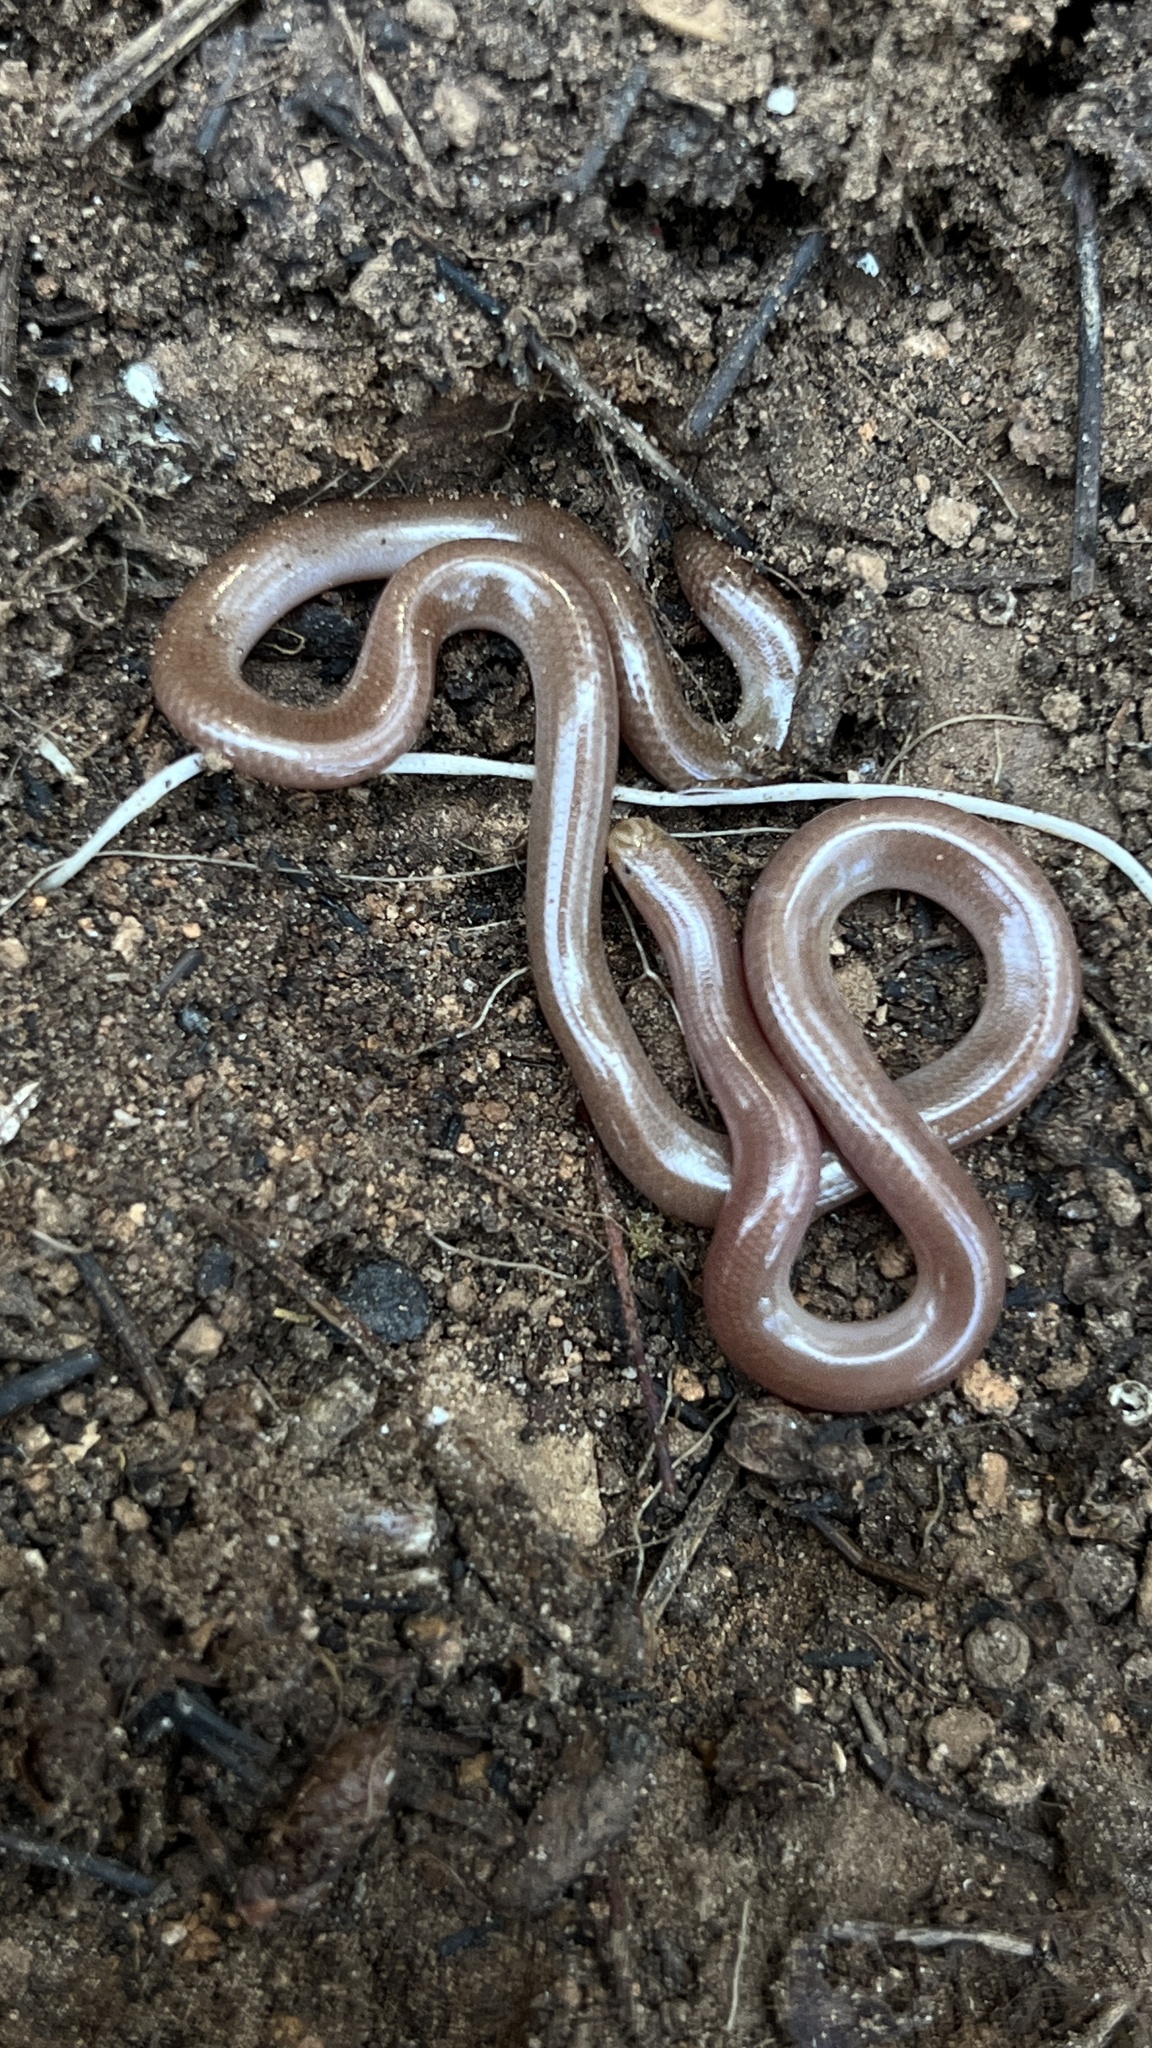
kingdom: Animalia
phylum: Chordata
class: Squamata
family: Typhlopidae
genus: Xerotyphlops
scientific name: Xerotyphlops vermicularis
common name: Eurasian blind snake
